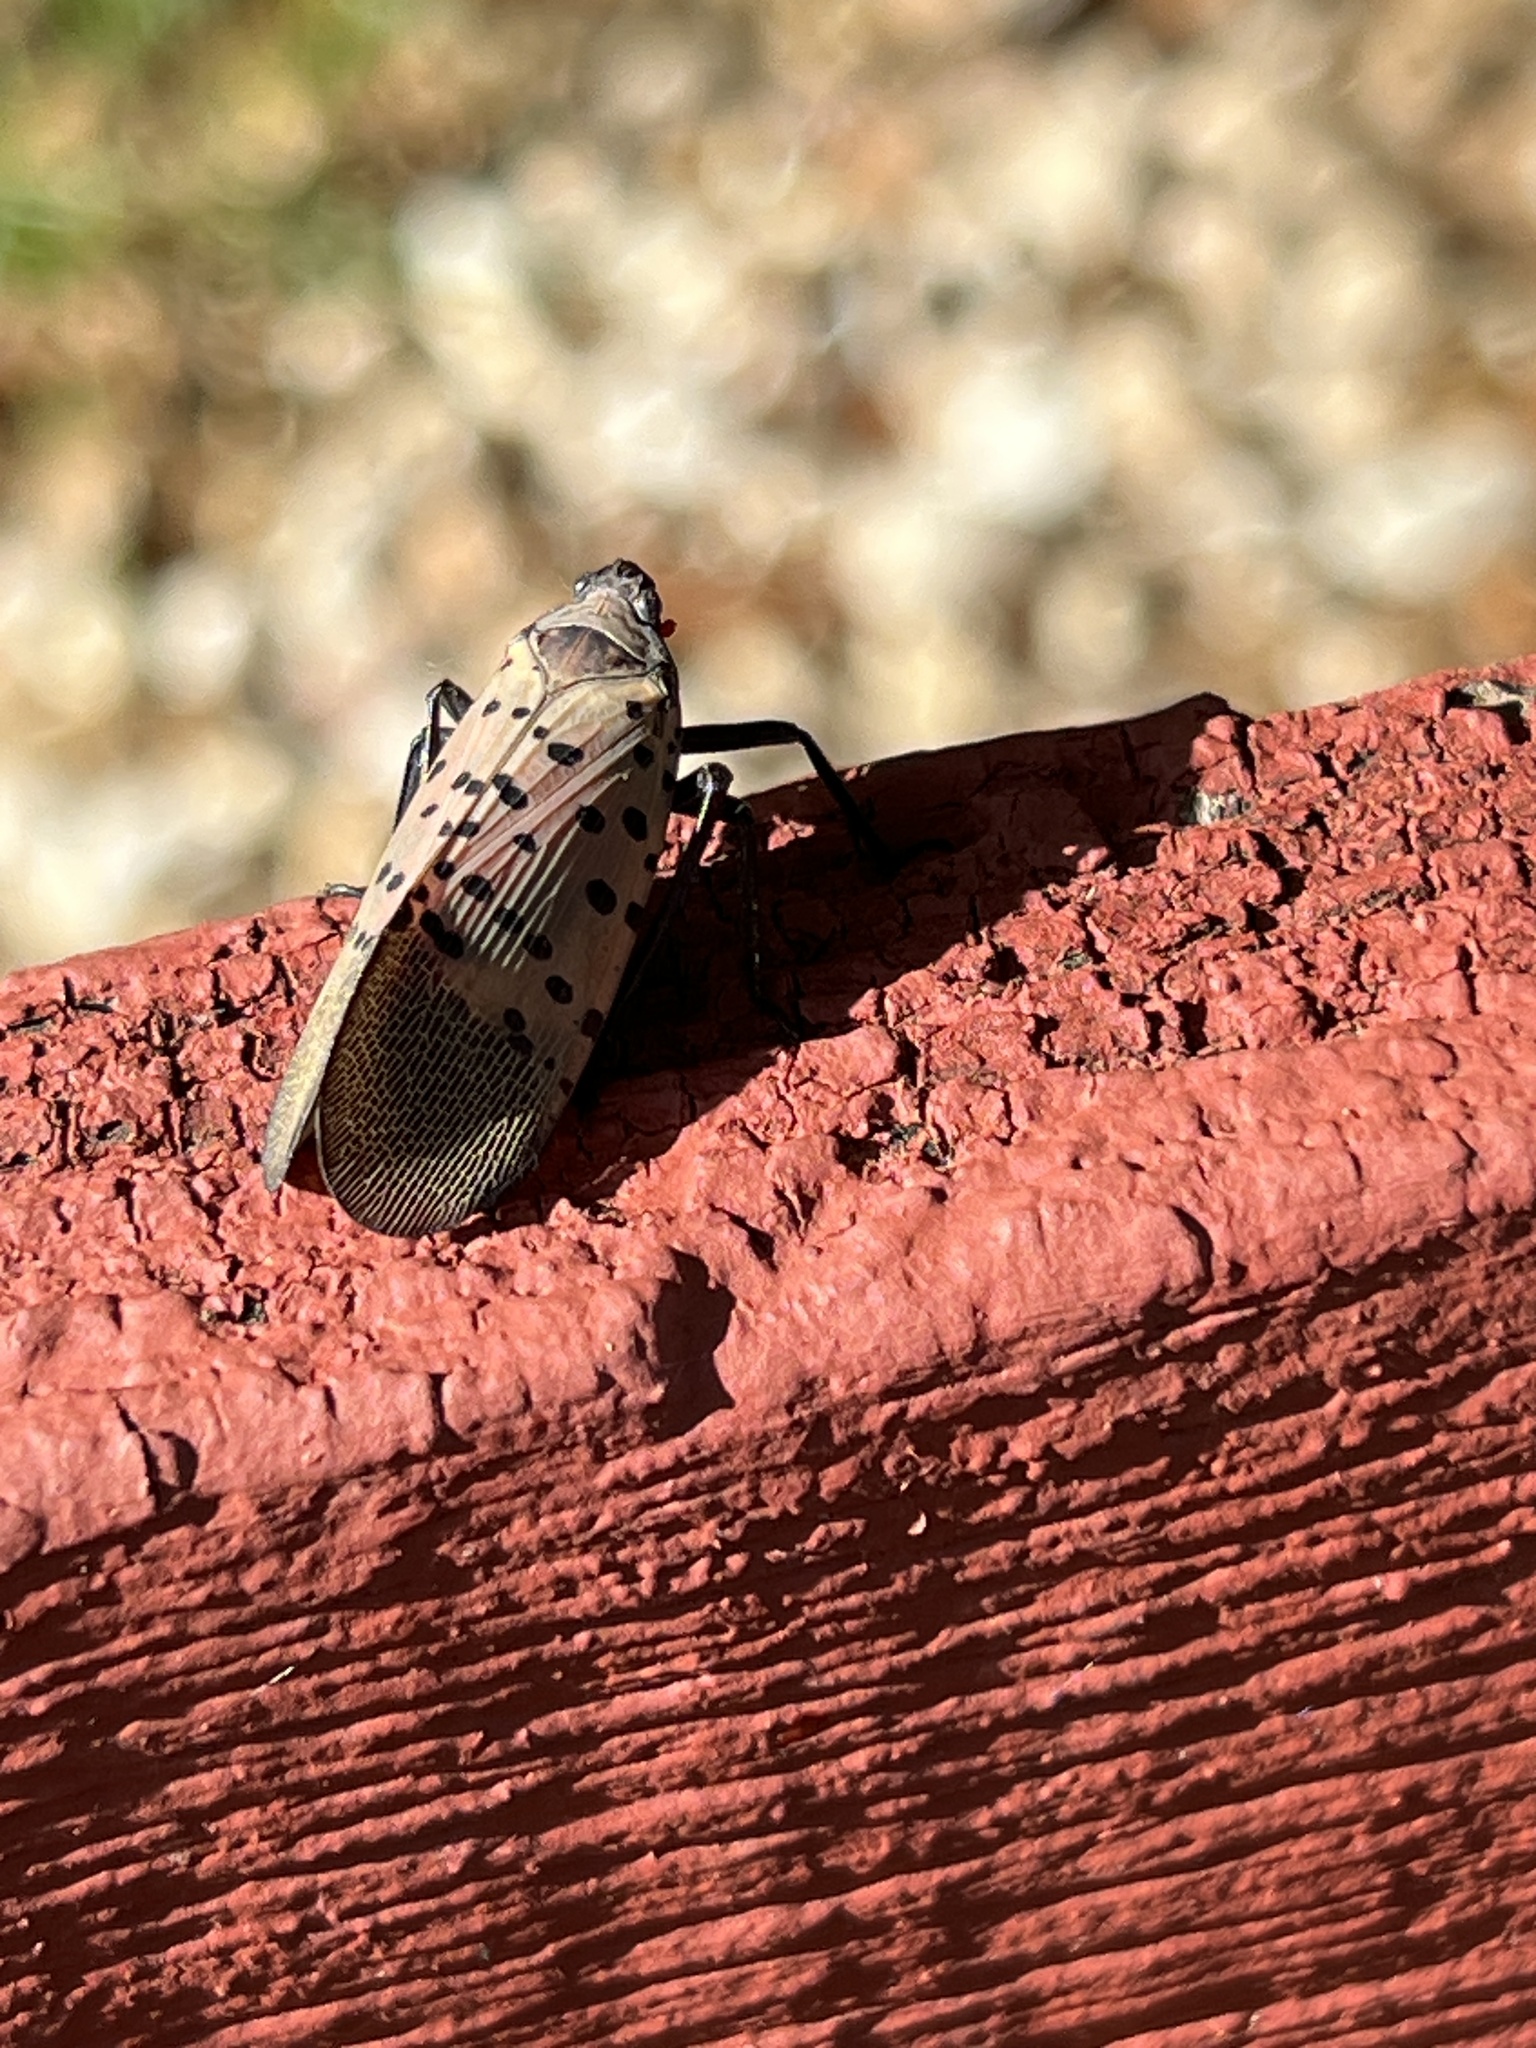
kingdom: Animalia
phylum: Arthropoda
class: Insecta
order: Hemiptera
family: Fulgoridae
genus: Lycorma
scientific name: Lycorma delicatula
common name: Spotted lanternfly
